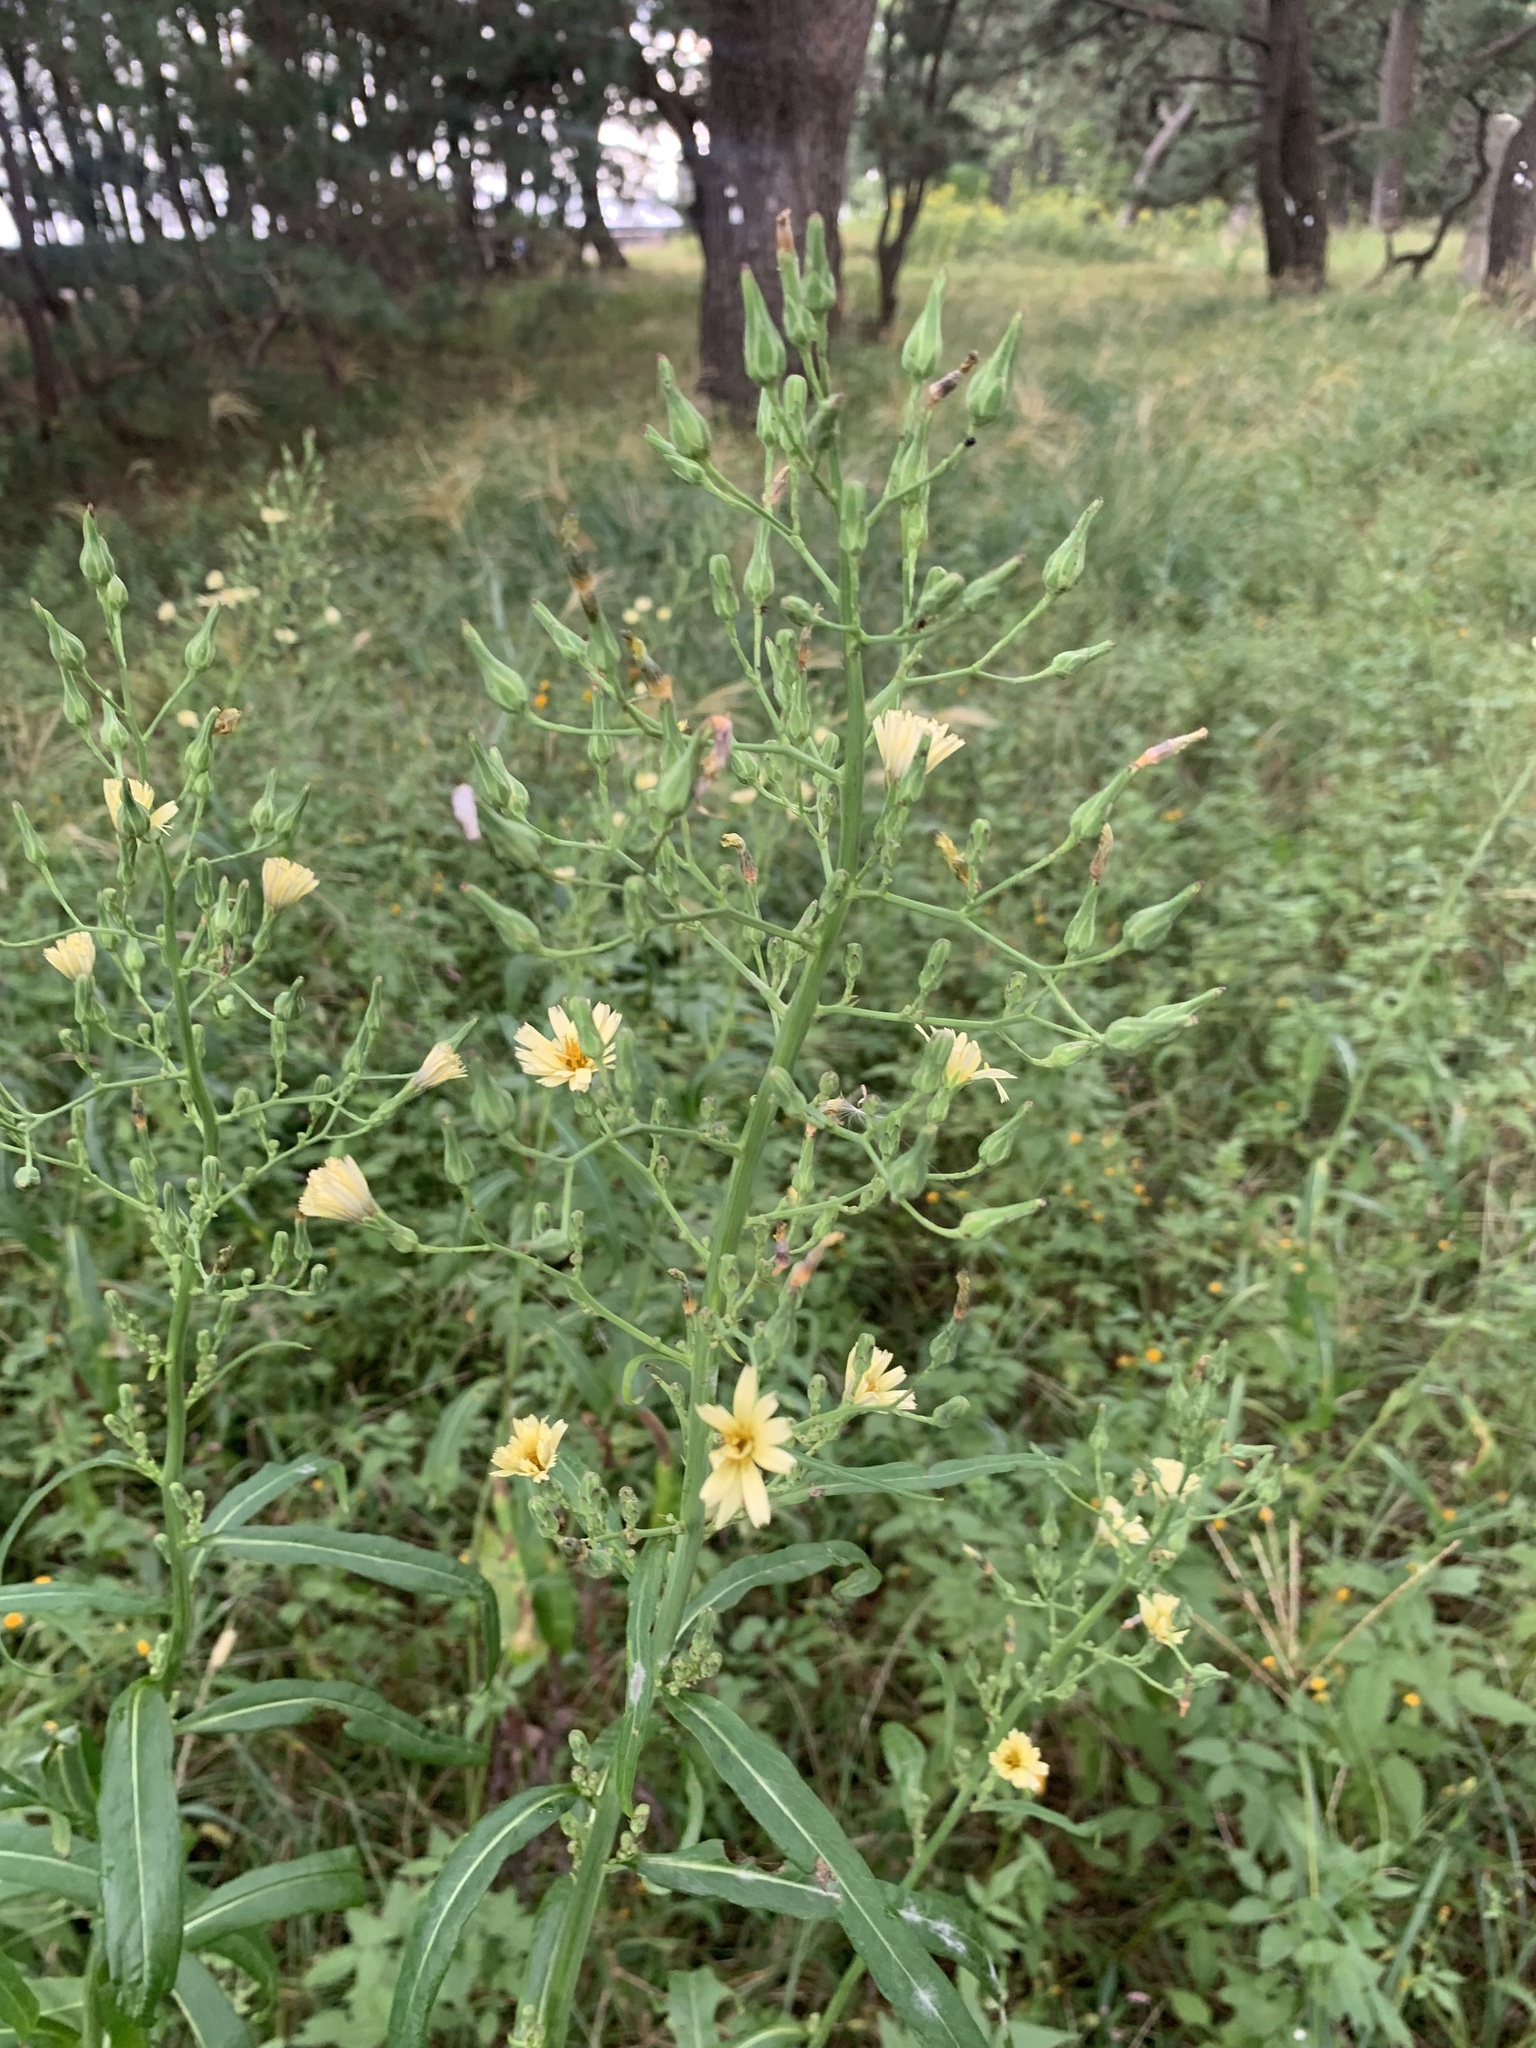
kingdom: Plantae
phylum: Tracheophyta
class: Magnoliopsida
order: Asterales
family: Asteraceae
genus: Lactuca
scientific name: Lactuca indica
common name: Wild lettuce
